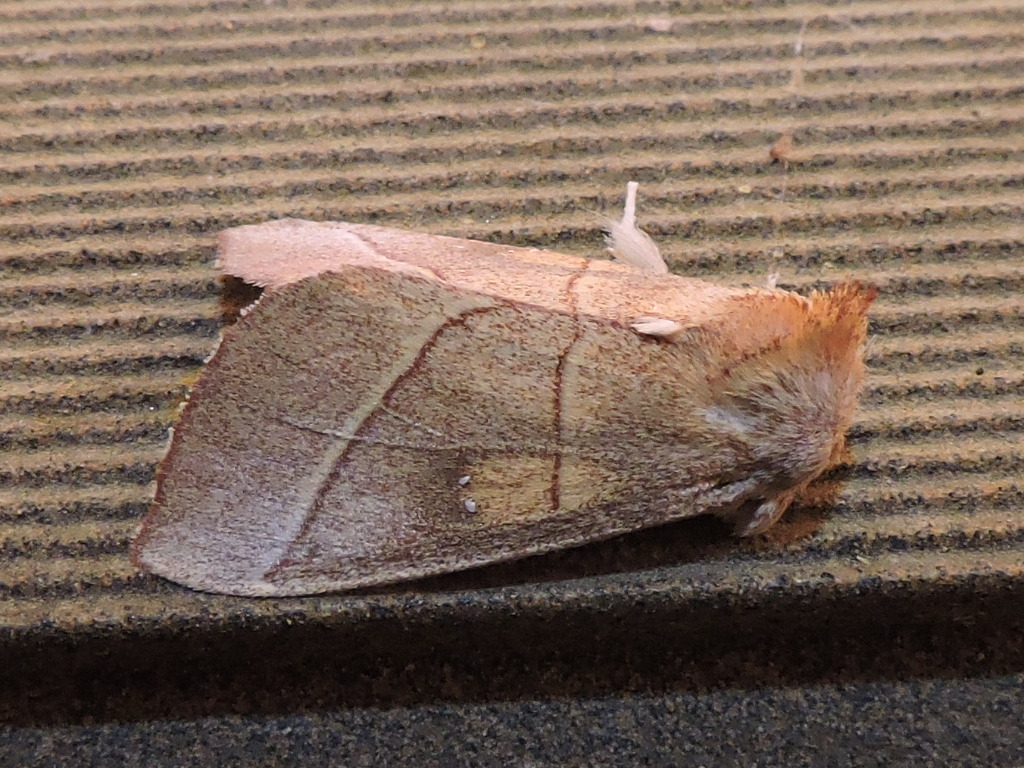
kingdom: Animalia
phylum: Arthropoda
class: Insecta
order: Lepidoptera
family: Notodontidae
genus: Nadata
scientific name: Nadata gibbosa
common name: White-dotted prominent
